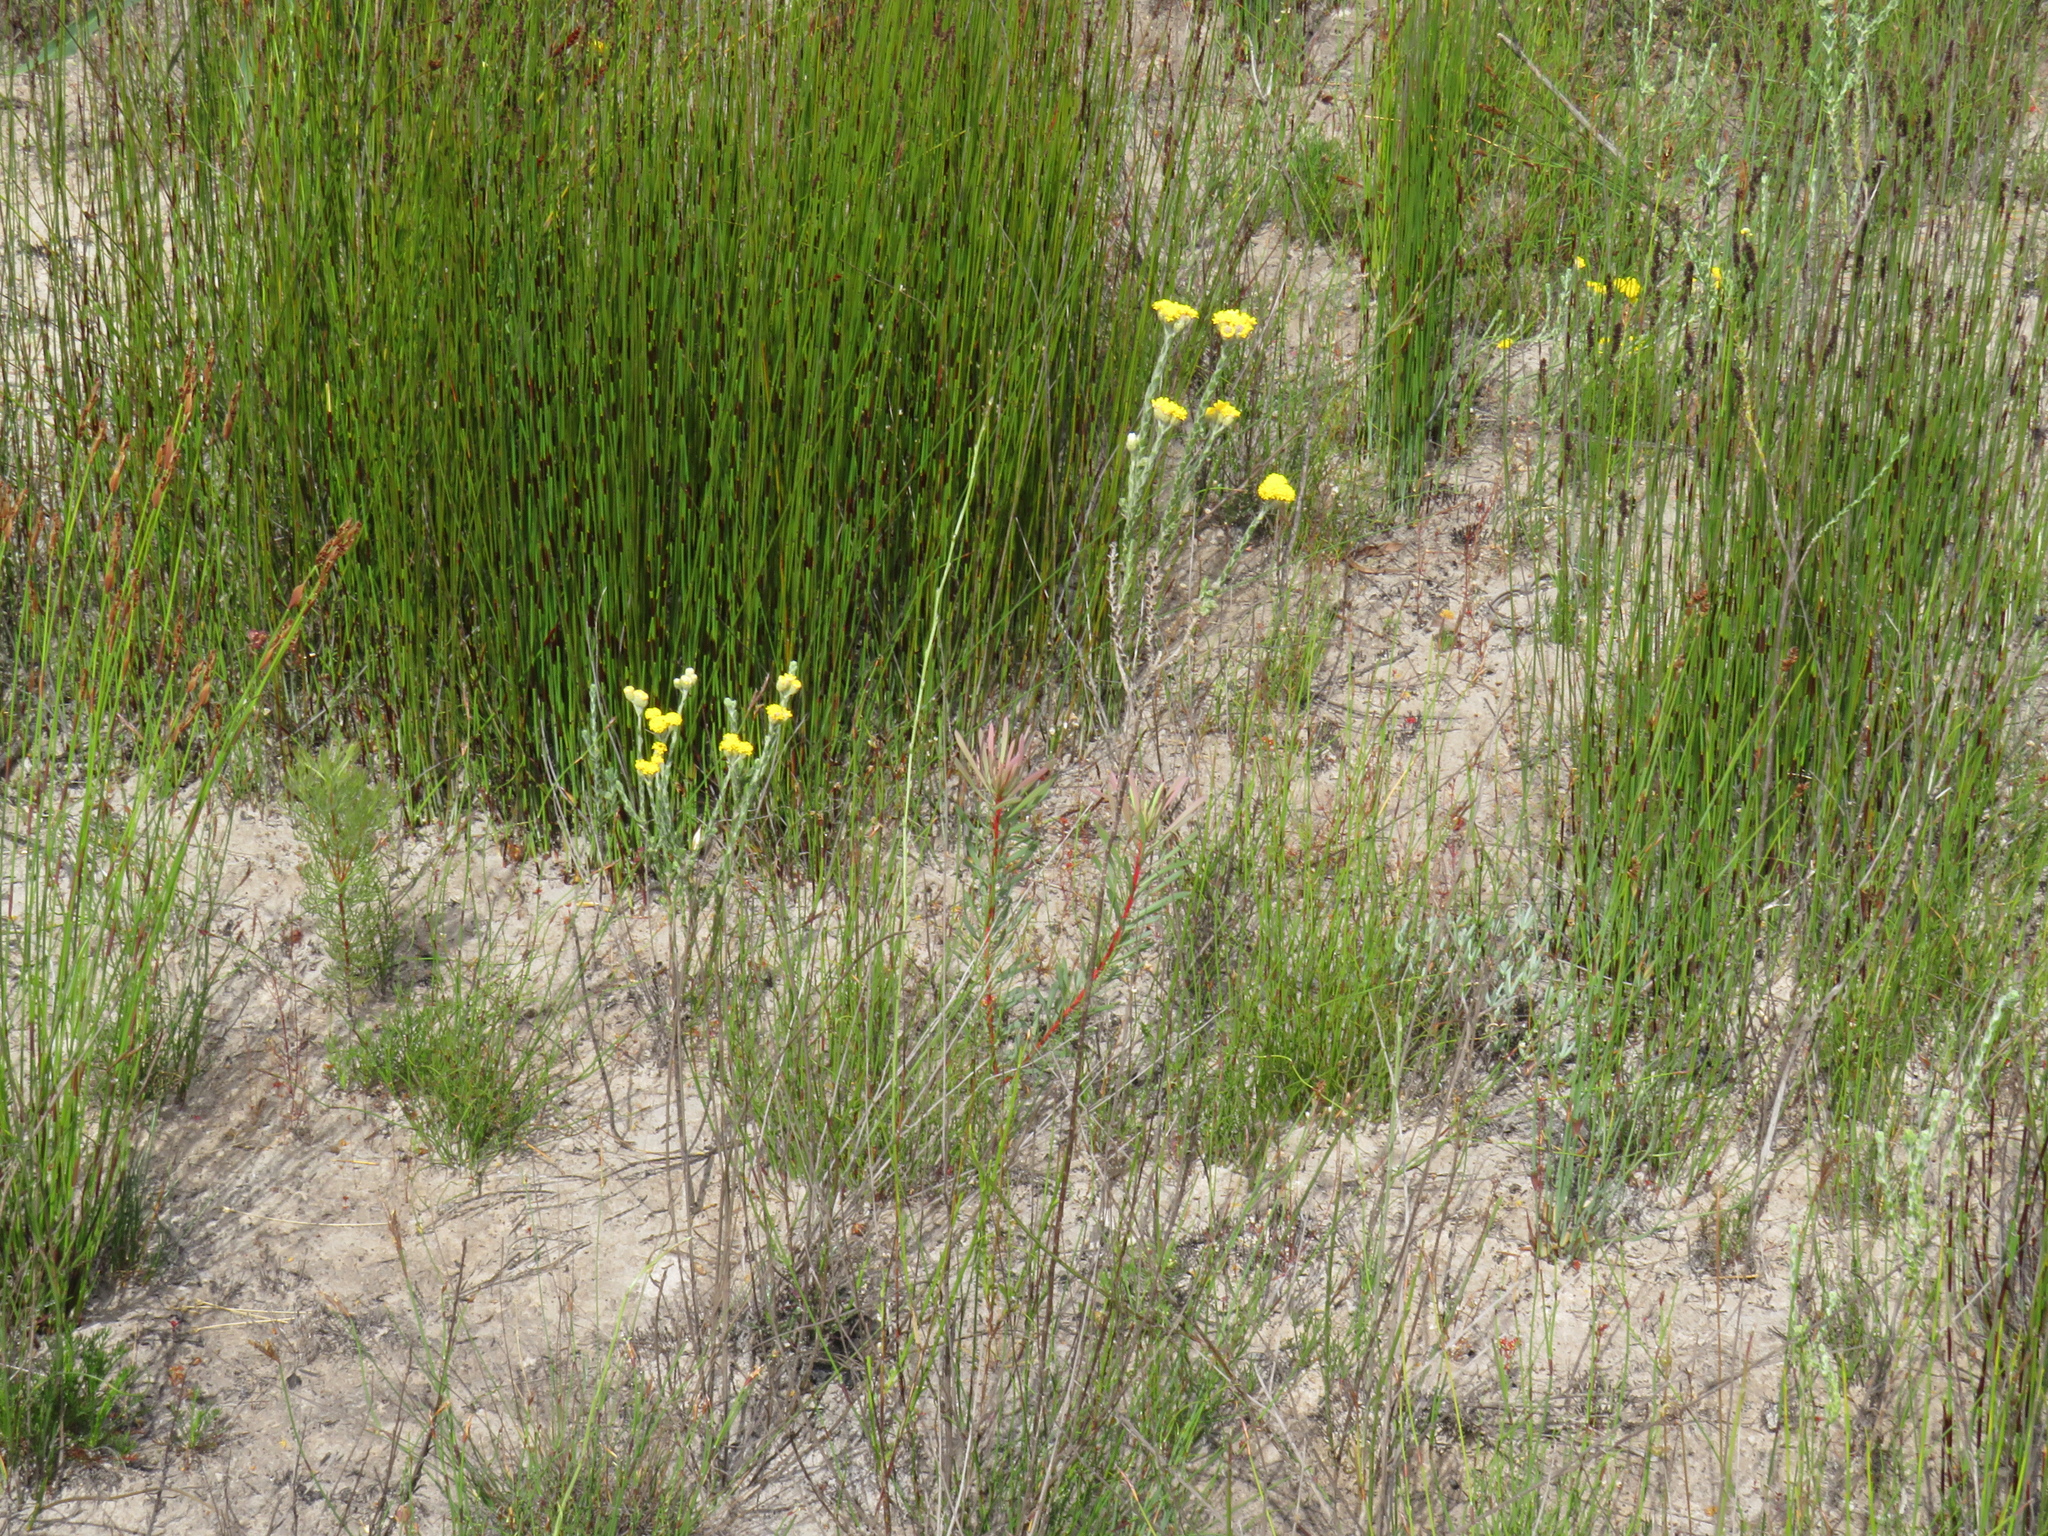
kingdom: Plantae
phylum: Tracheophyta
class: Magnoliopsida
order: Asterales
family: Asteraceae
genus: Athanasia
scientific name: Athanasia rugulosa
